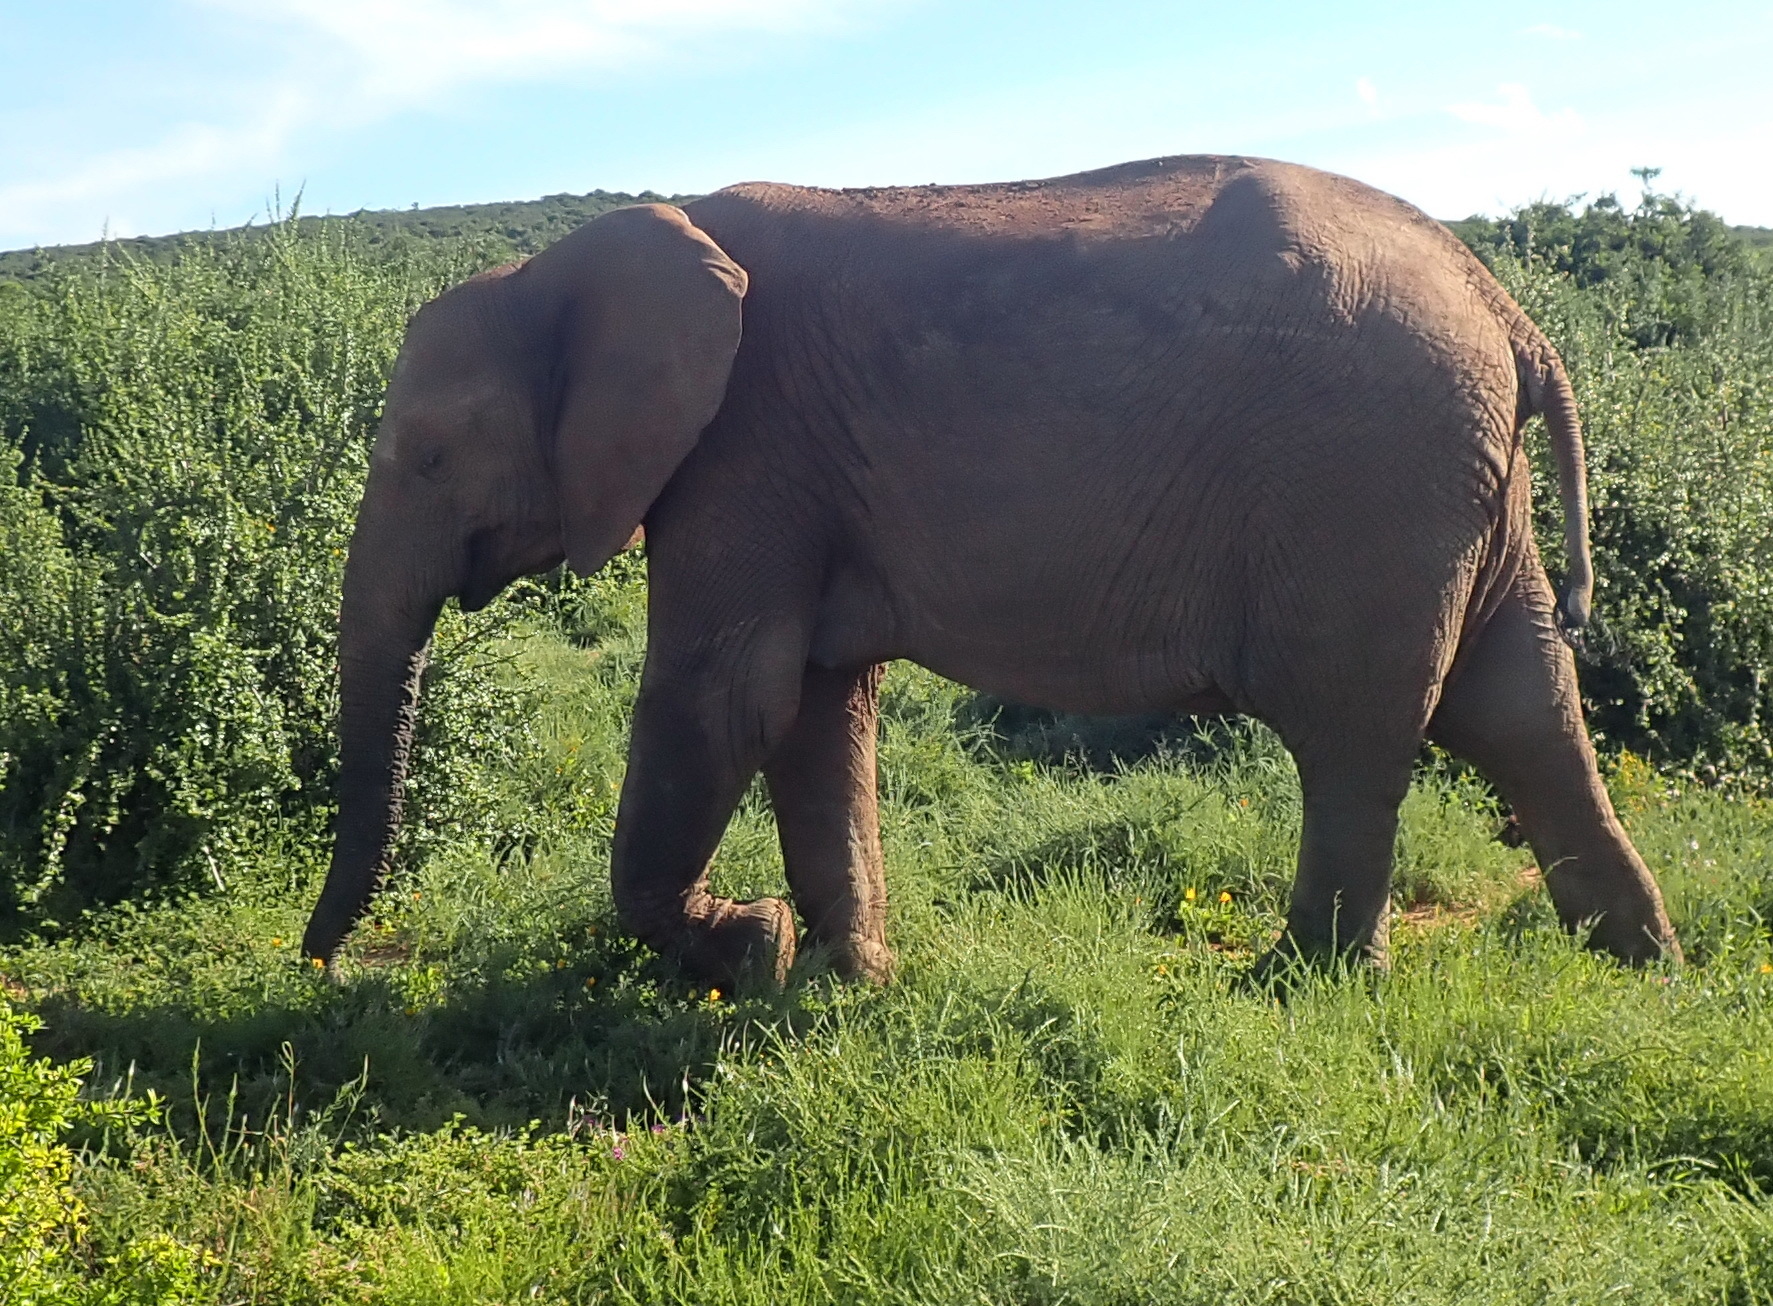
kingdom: Animalia
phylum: Chordata
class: Mammalia
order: Proboscidea
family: Elephantidae
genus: Loxodonta
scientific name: Loxodonta africana
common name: African elephant
